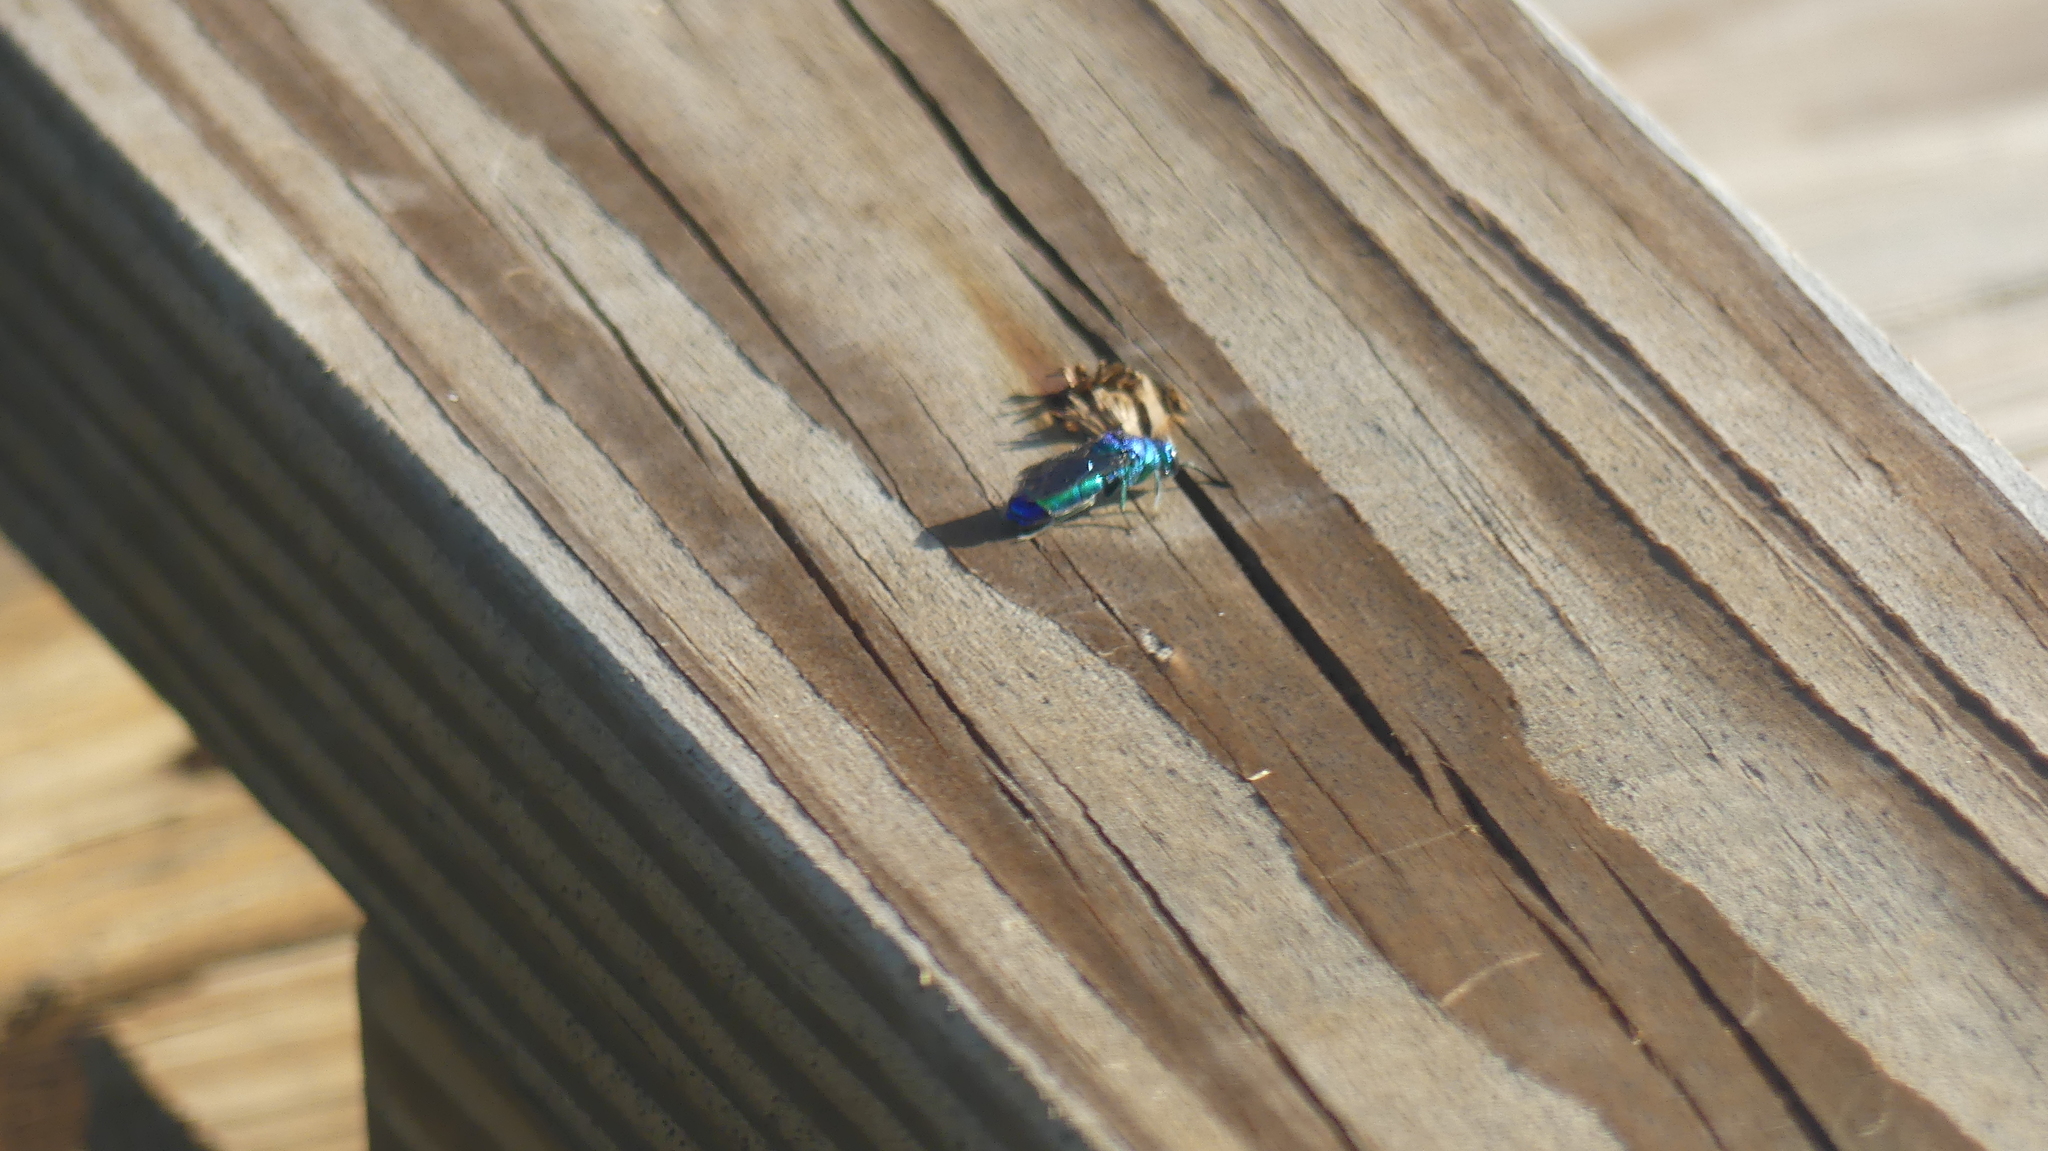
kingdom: Animalia
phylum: Arthropoda
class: Insecta
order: Hymenoptera
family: Chrysididae
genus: Chrysis
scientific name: Chrysis angolensis
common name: Cuckoo wasp
